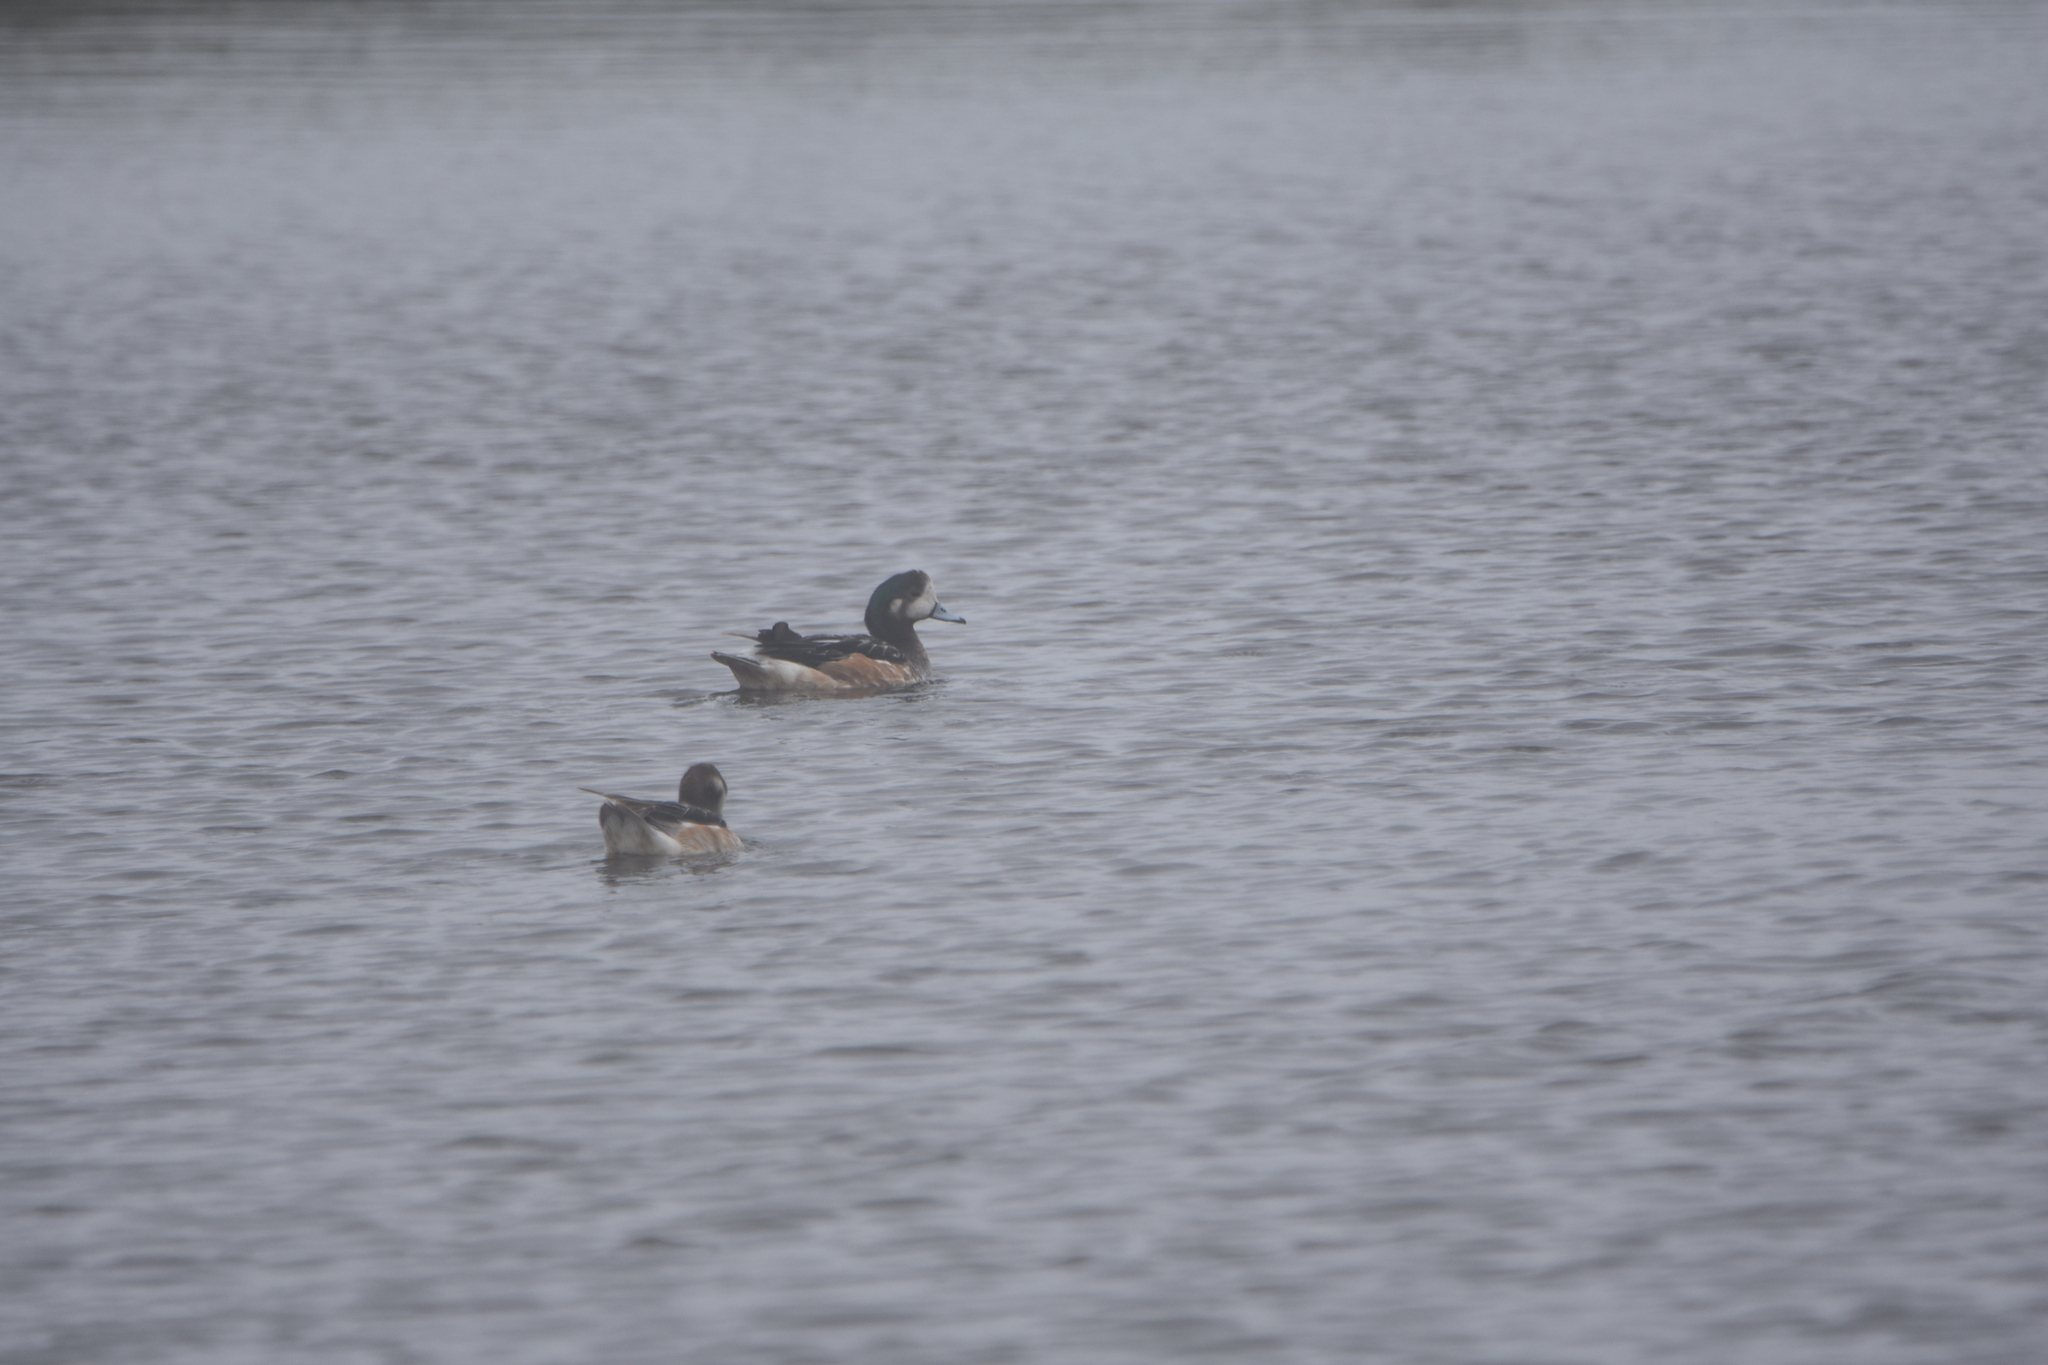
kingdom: Animalia
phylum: Chordata
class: Aves
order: Anseriformes
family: Anatidae
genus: Mareca
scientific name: Mareca sibilatrix
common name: Chiloe wigeon
